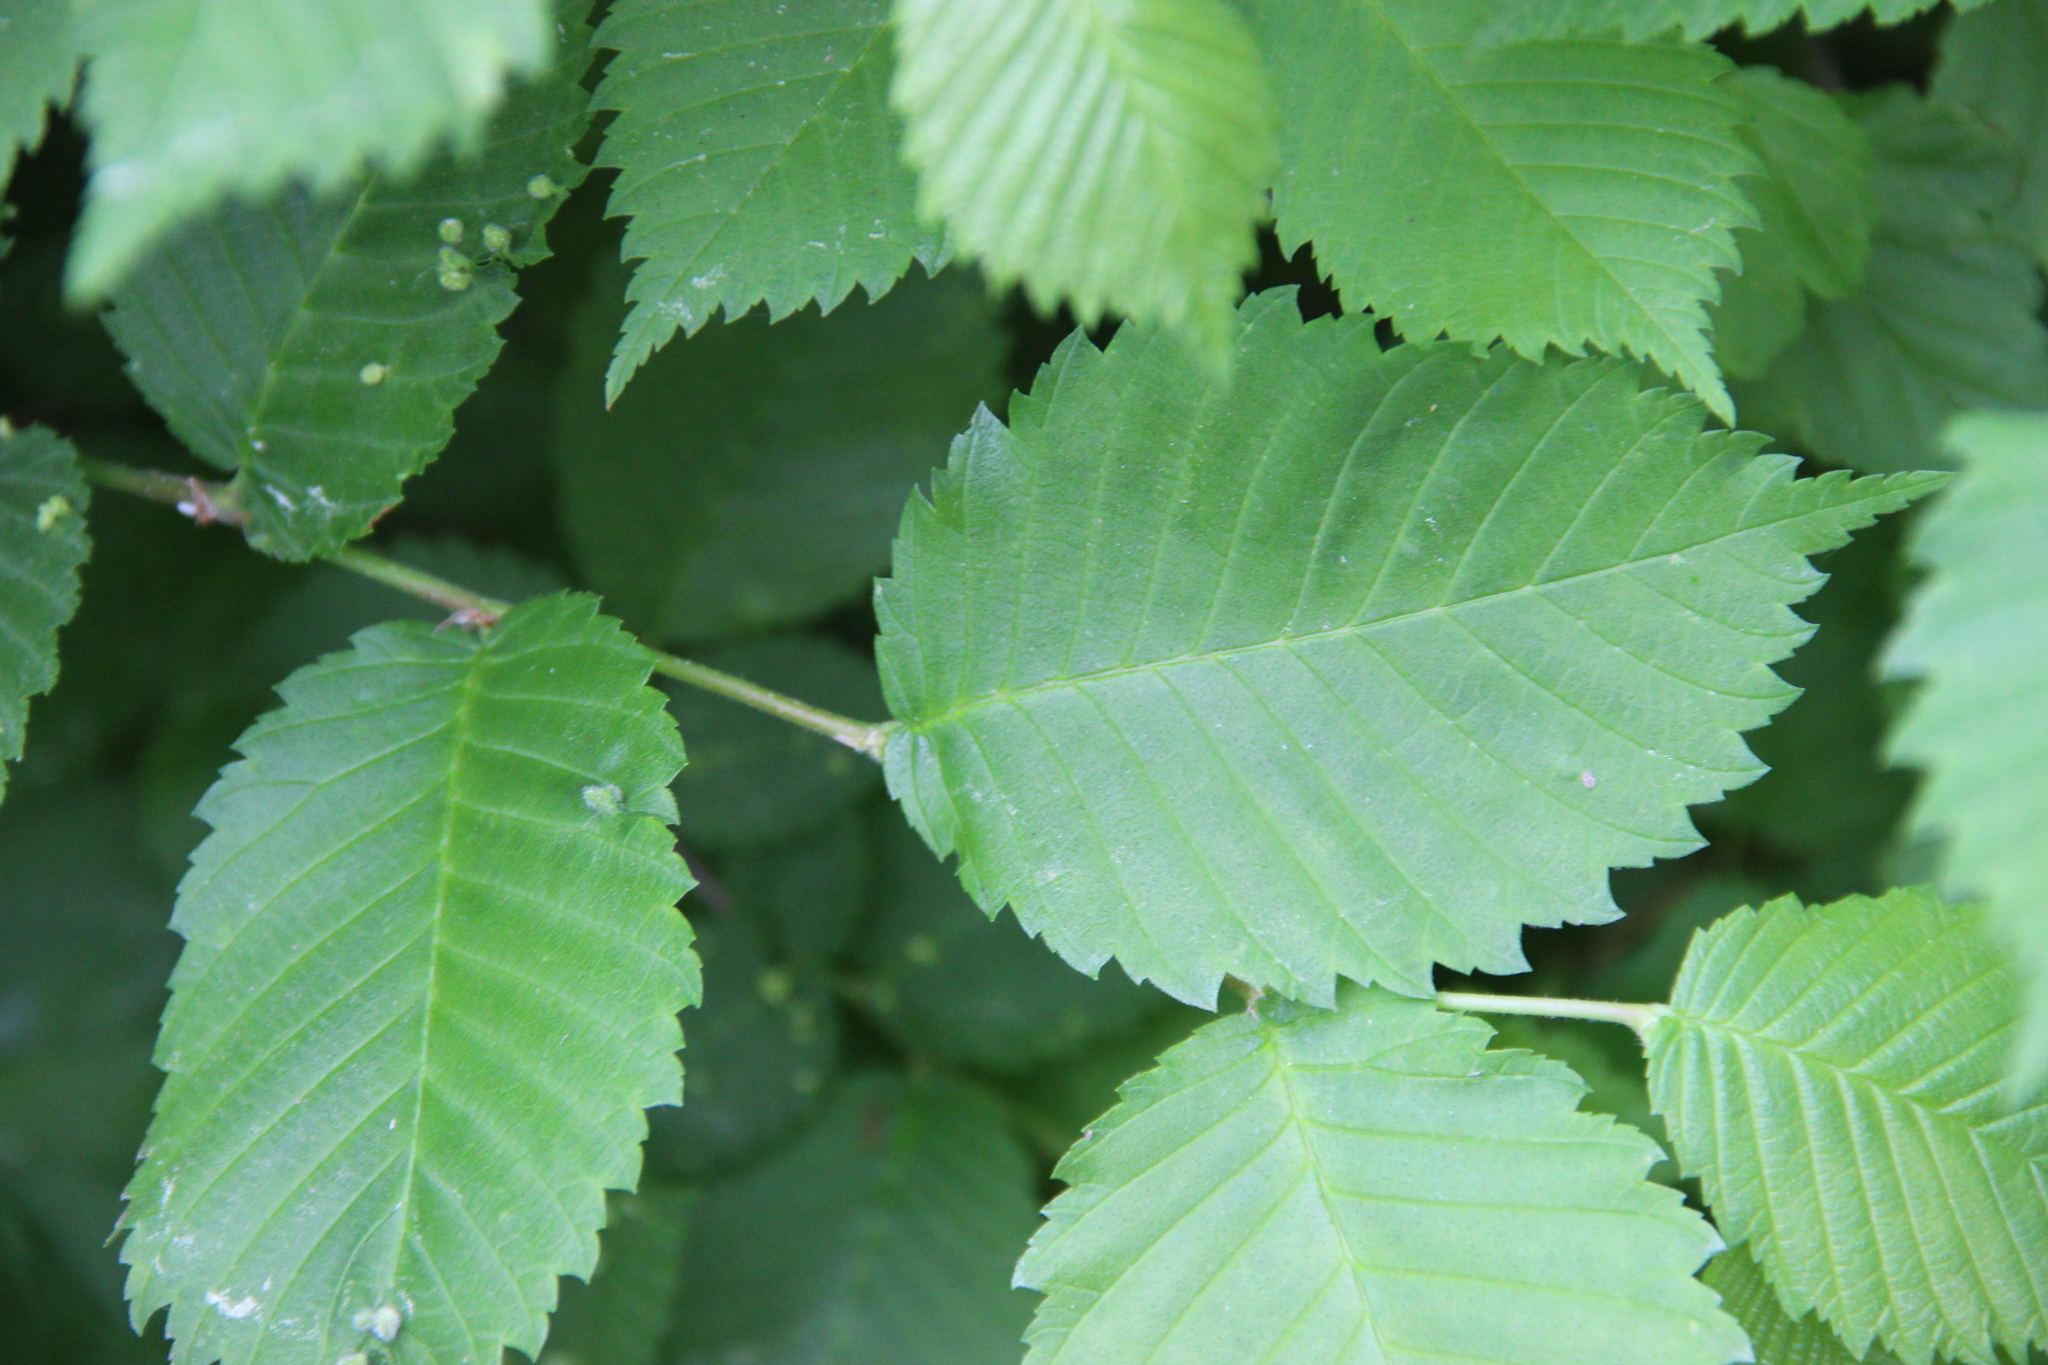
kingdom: Plantae
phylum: Tracheophyta
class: Magnoliopsida
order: Rosales
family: Ulmaceae
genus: Ulmus
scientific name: Ulmus laevis
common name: European white-elm
